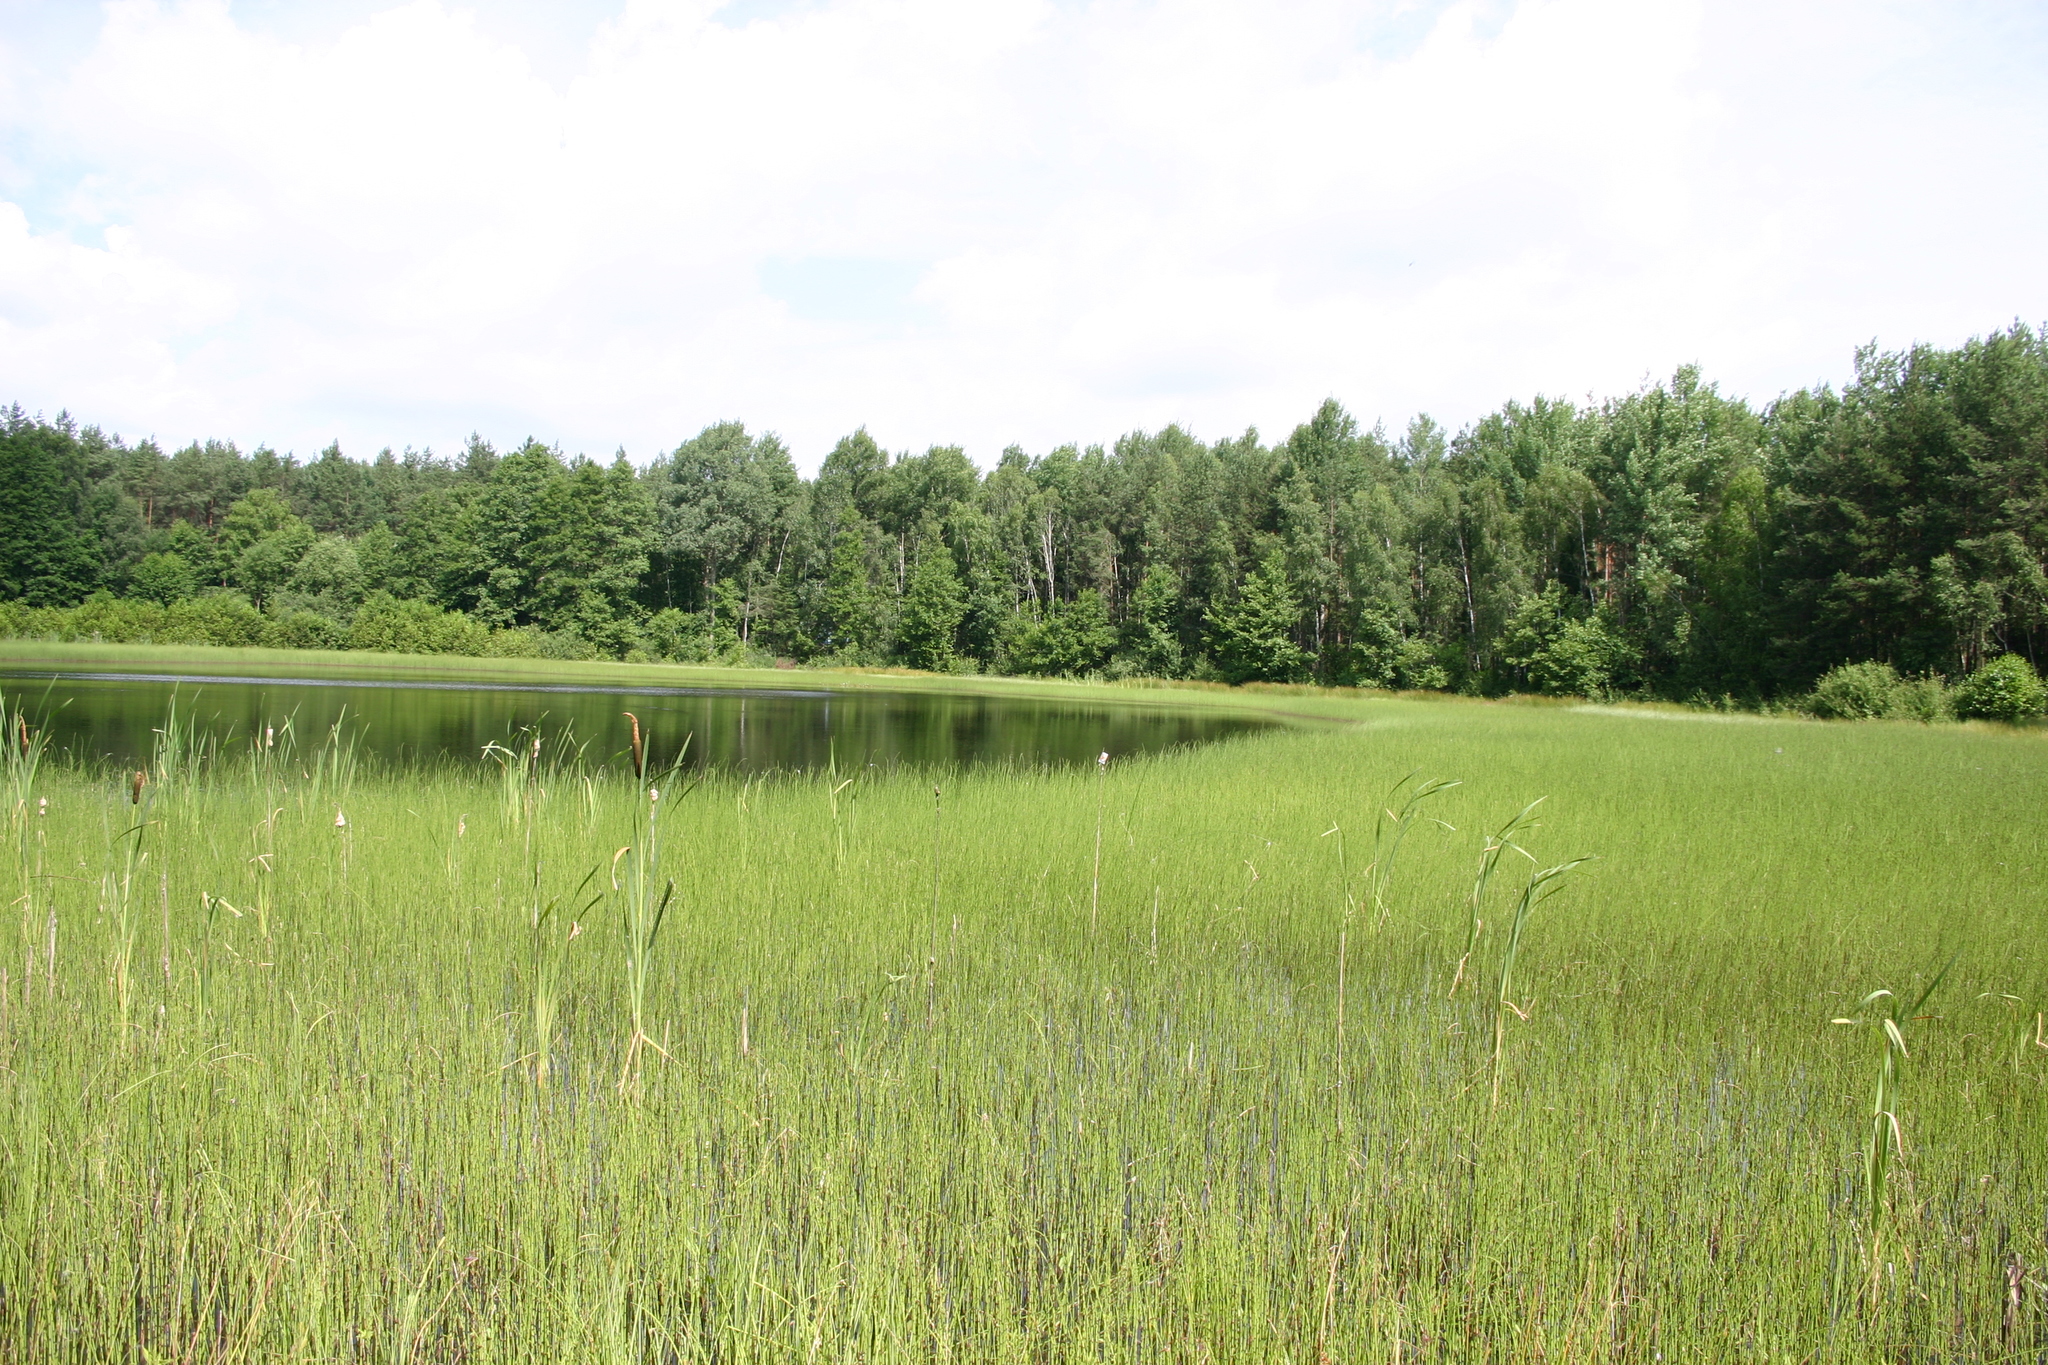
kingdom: Animalia
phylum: Arthropoda
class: Insecta
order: Odonata
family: Libellulidae
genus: Leucorrhinia
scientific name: Leucorrhinia albifrons
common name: Dark whiteface
